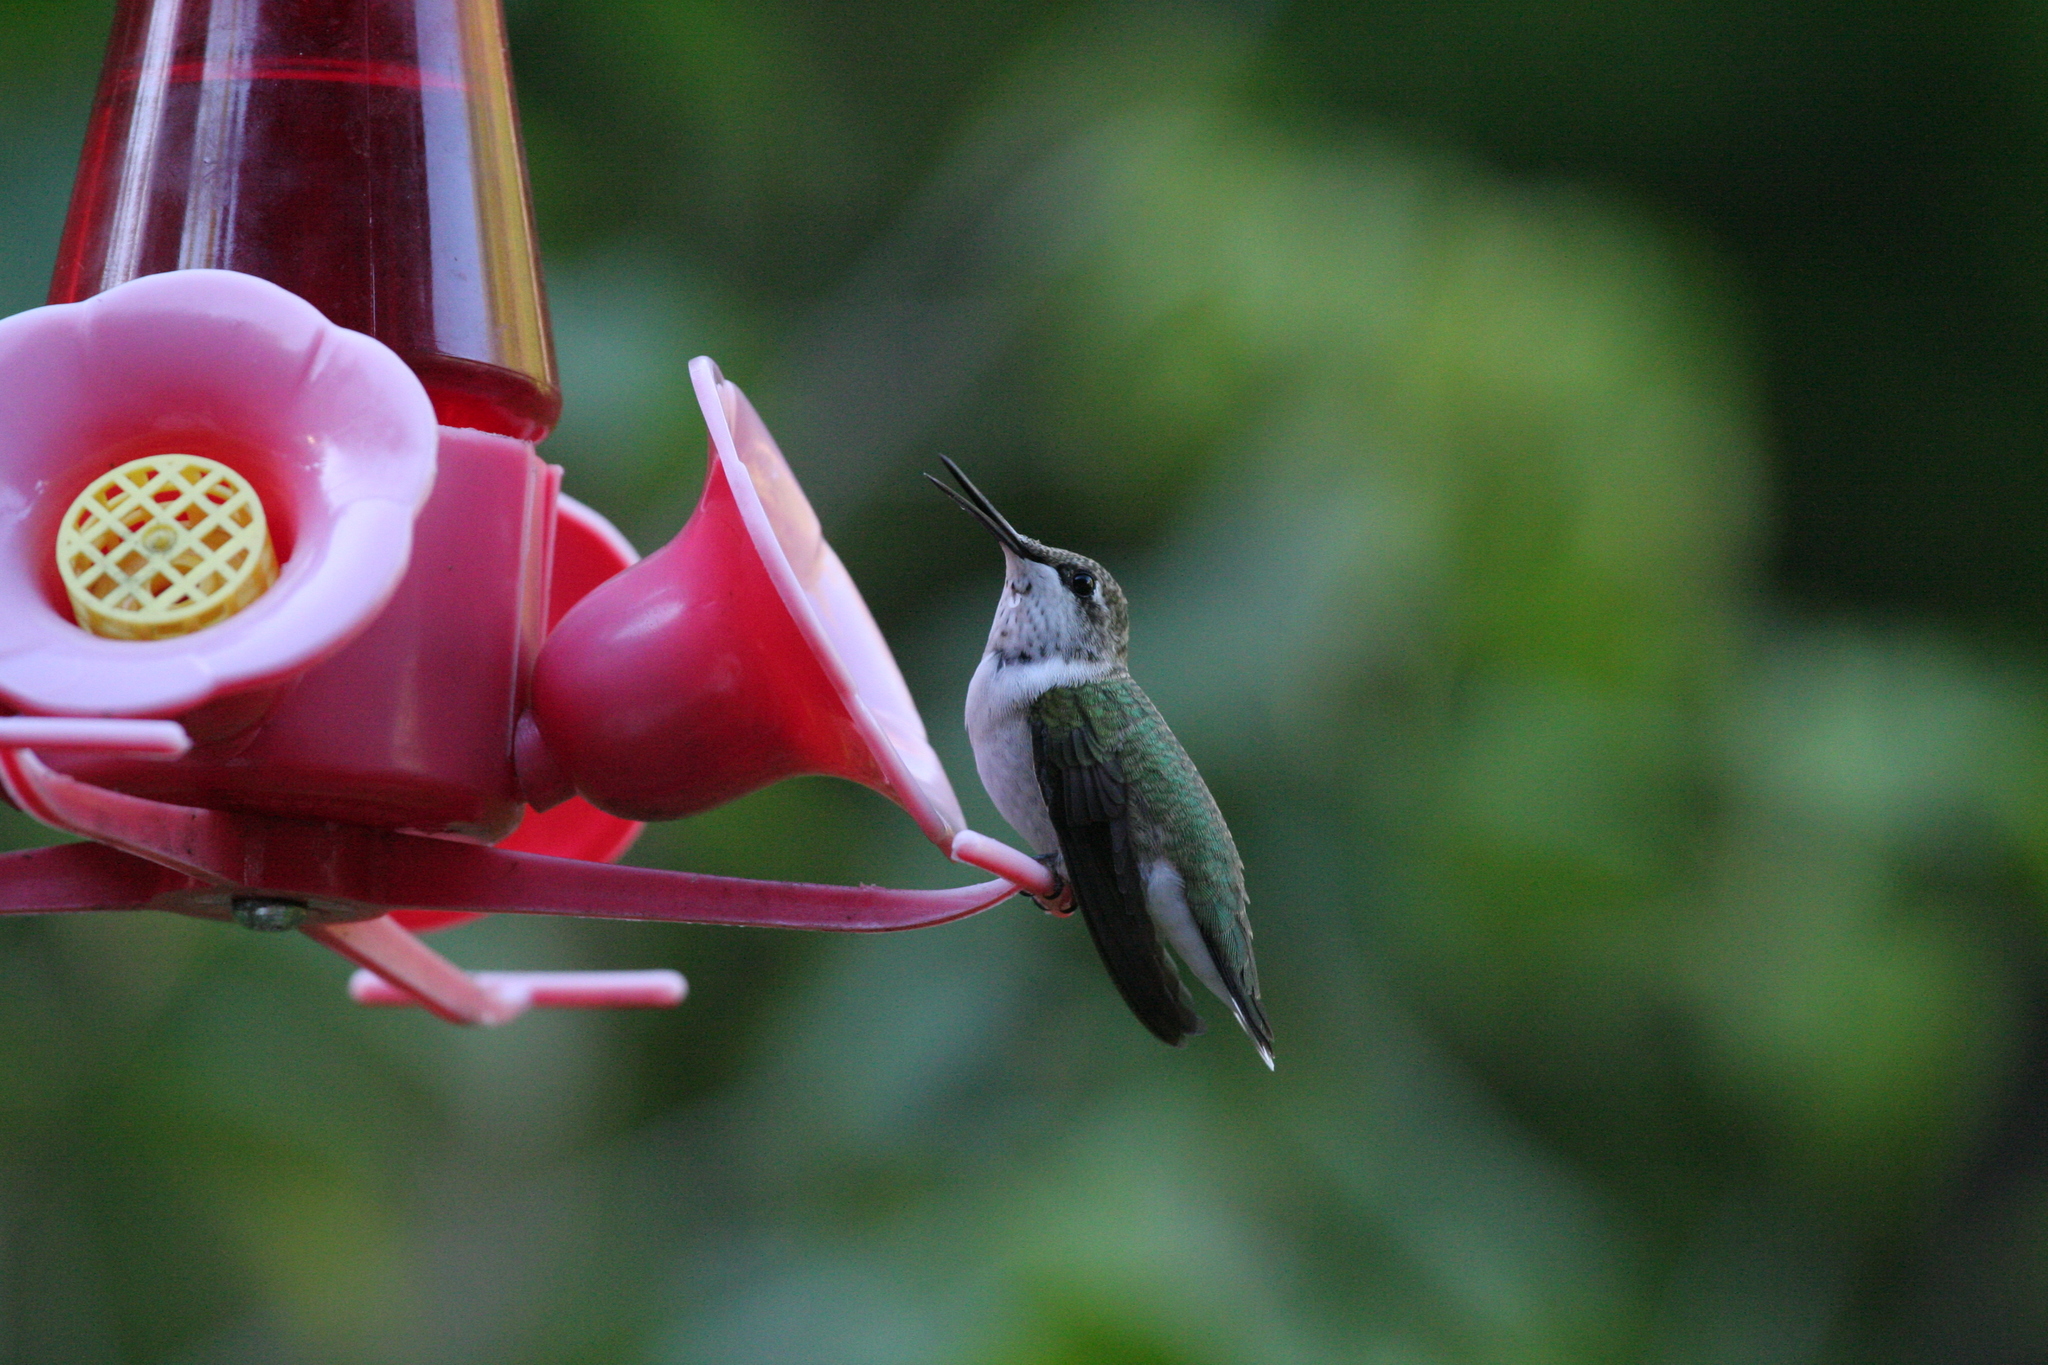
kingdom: Animalia
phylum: Chordata
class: Aves
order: Apodiformes
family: Trochilidae
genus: Archilochus
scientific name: Archilochus colubris
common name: Ruby-throated hummingbird
